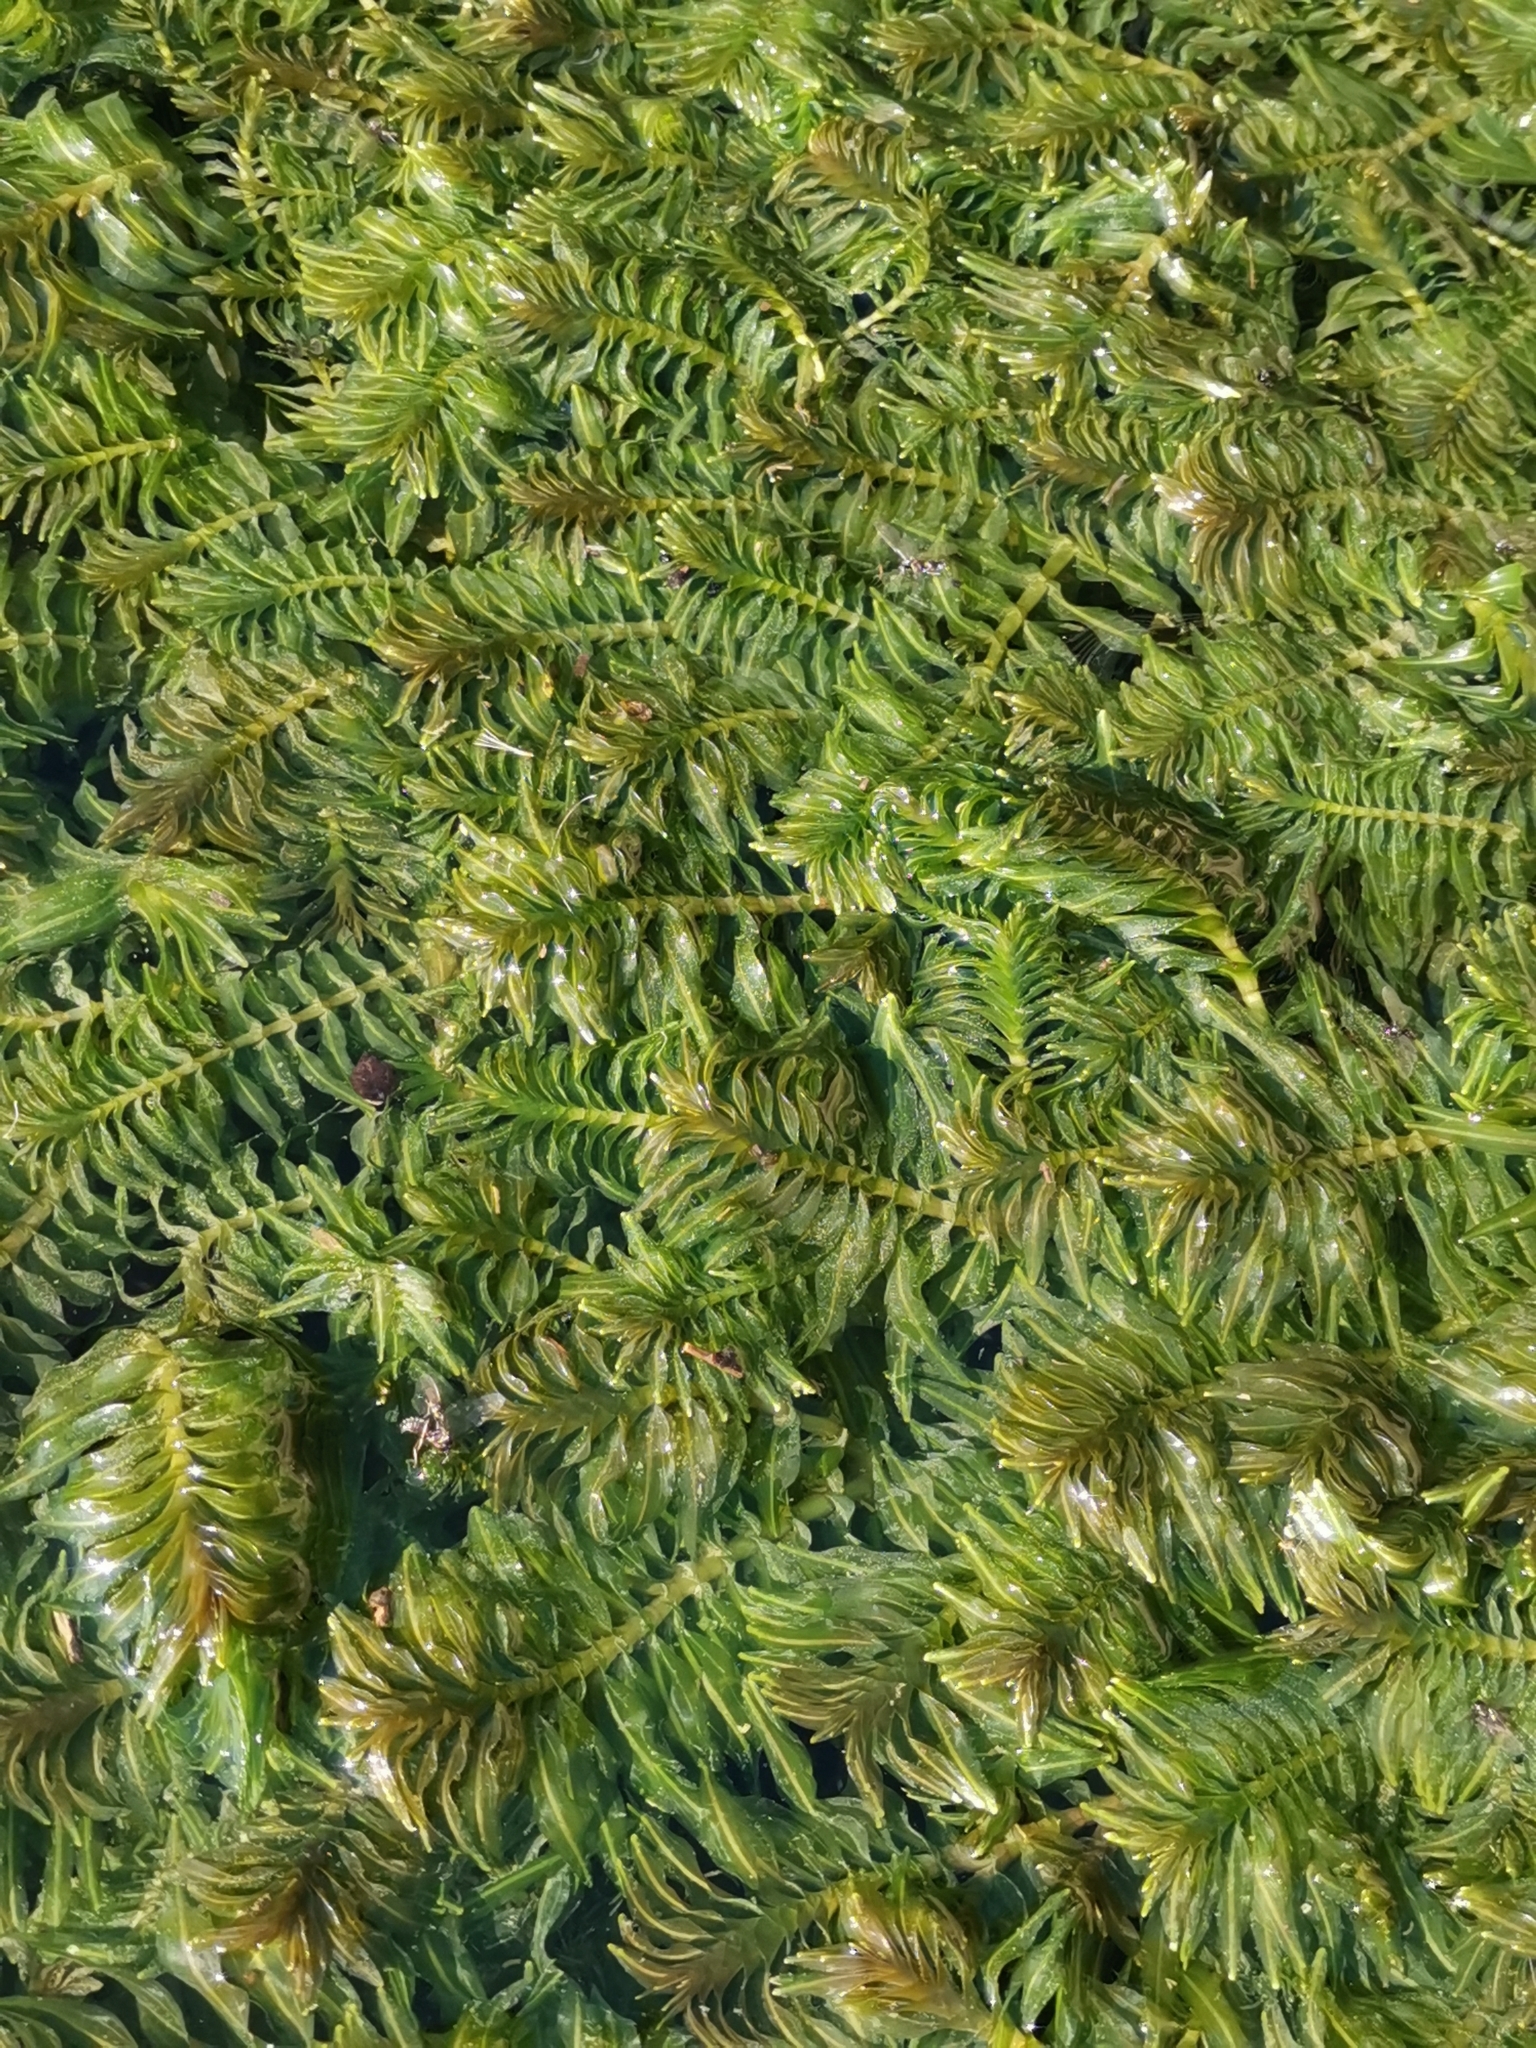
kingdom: Plantae
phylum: Tracheophyta
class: Liliopsida
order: Alismatales
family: Potamogetonaceae
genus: Groenlandia
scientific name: Groenlandia densa
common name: Opposite-leaved pondweed
